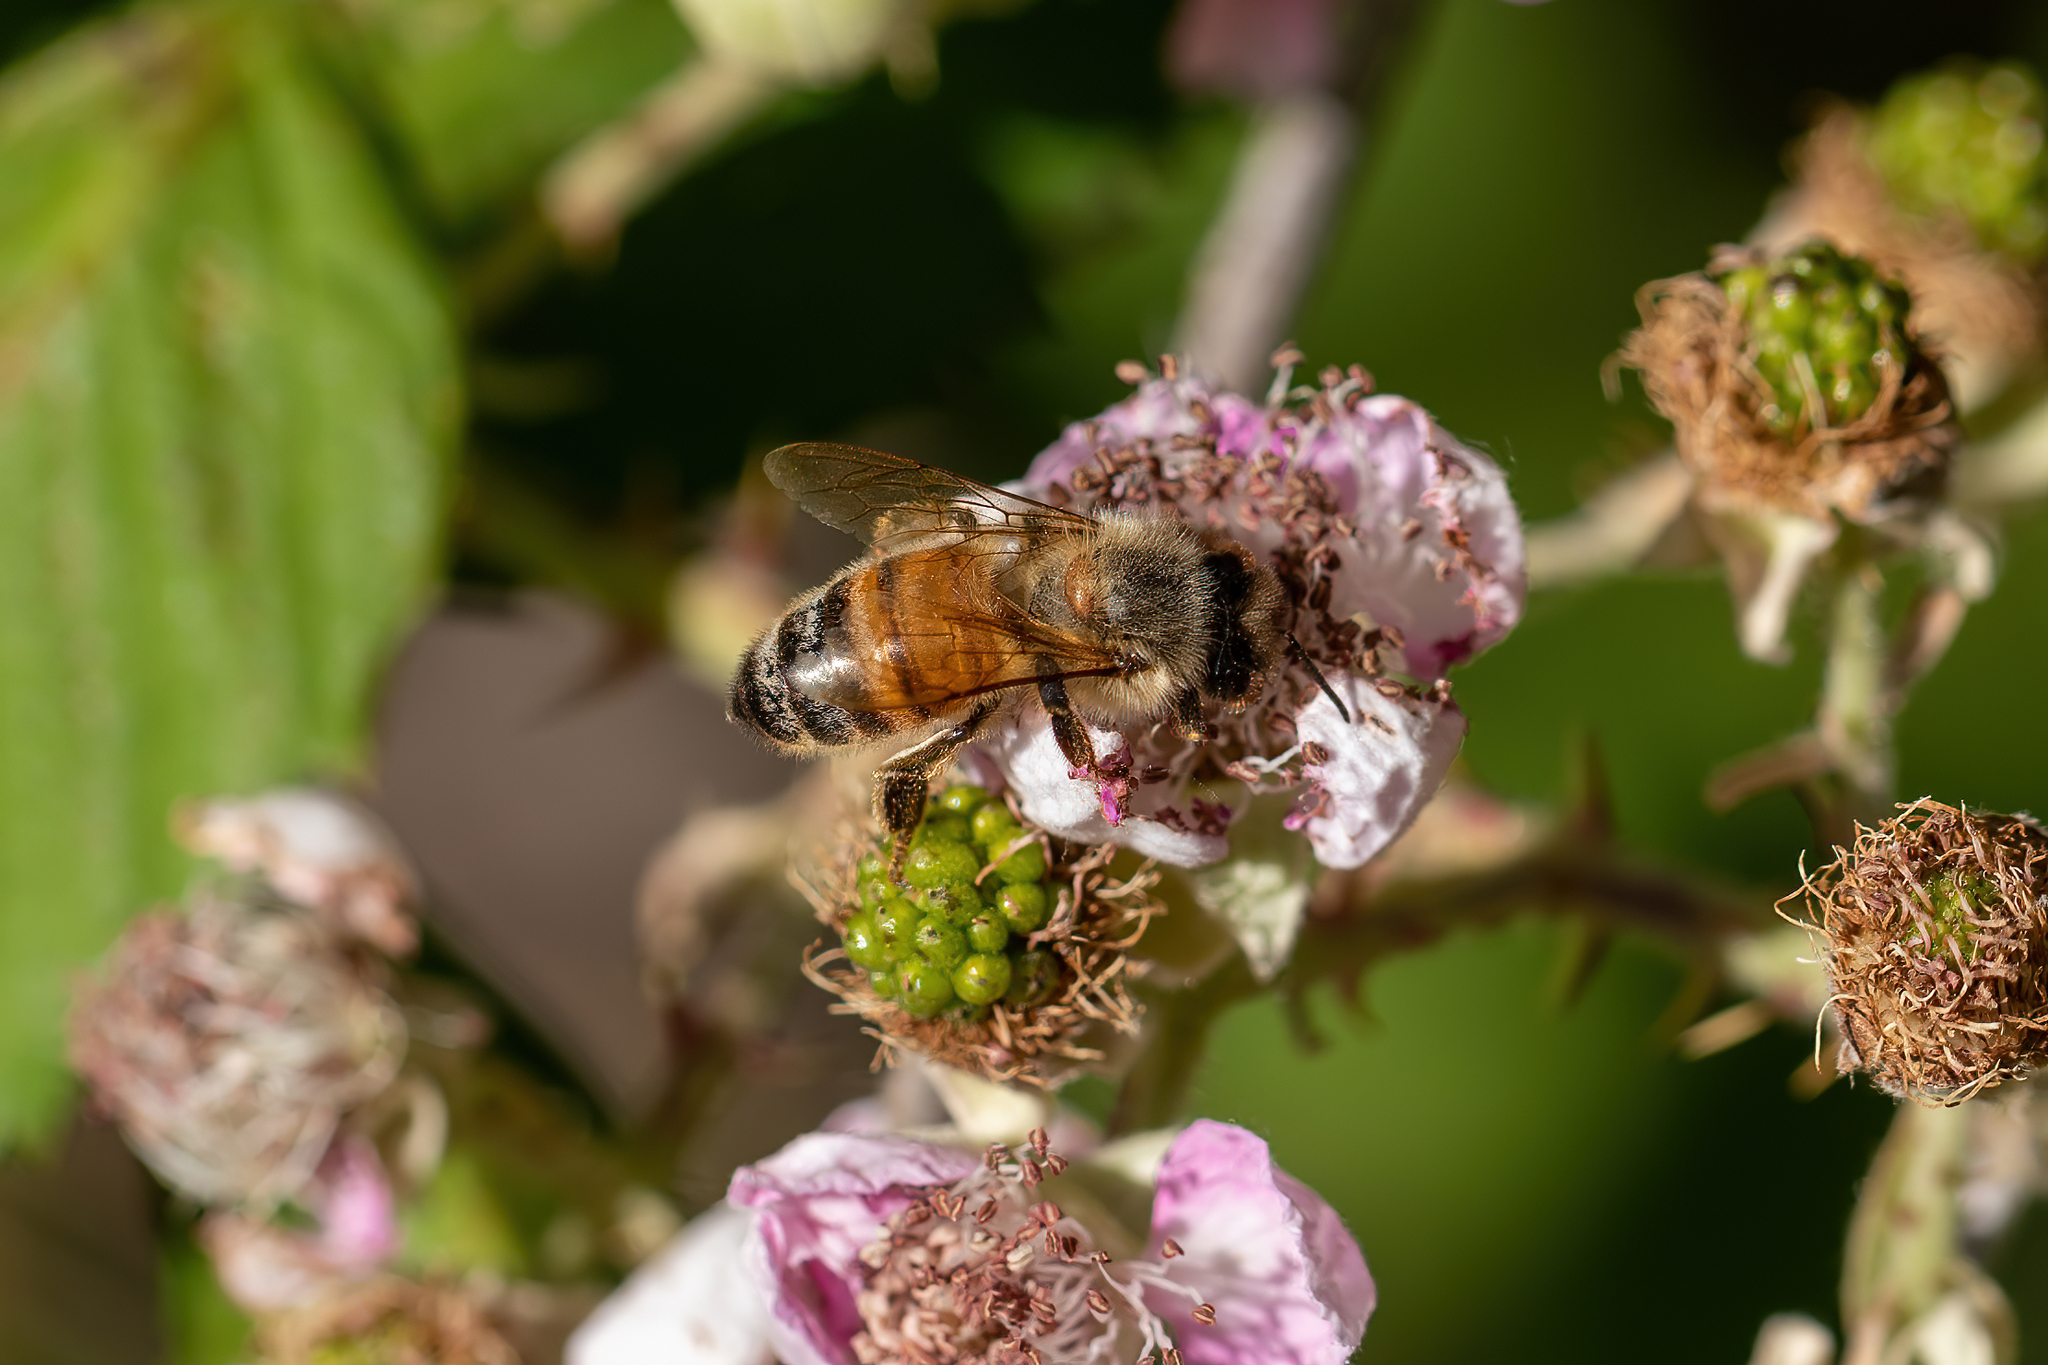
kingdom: Animalia
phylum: Arthropoda
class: Insecta
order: Hymenoptera
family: Apidae
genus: Apis
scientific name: Apis mellifera
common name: Honey bee
